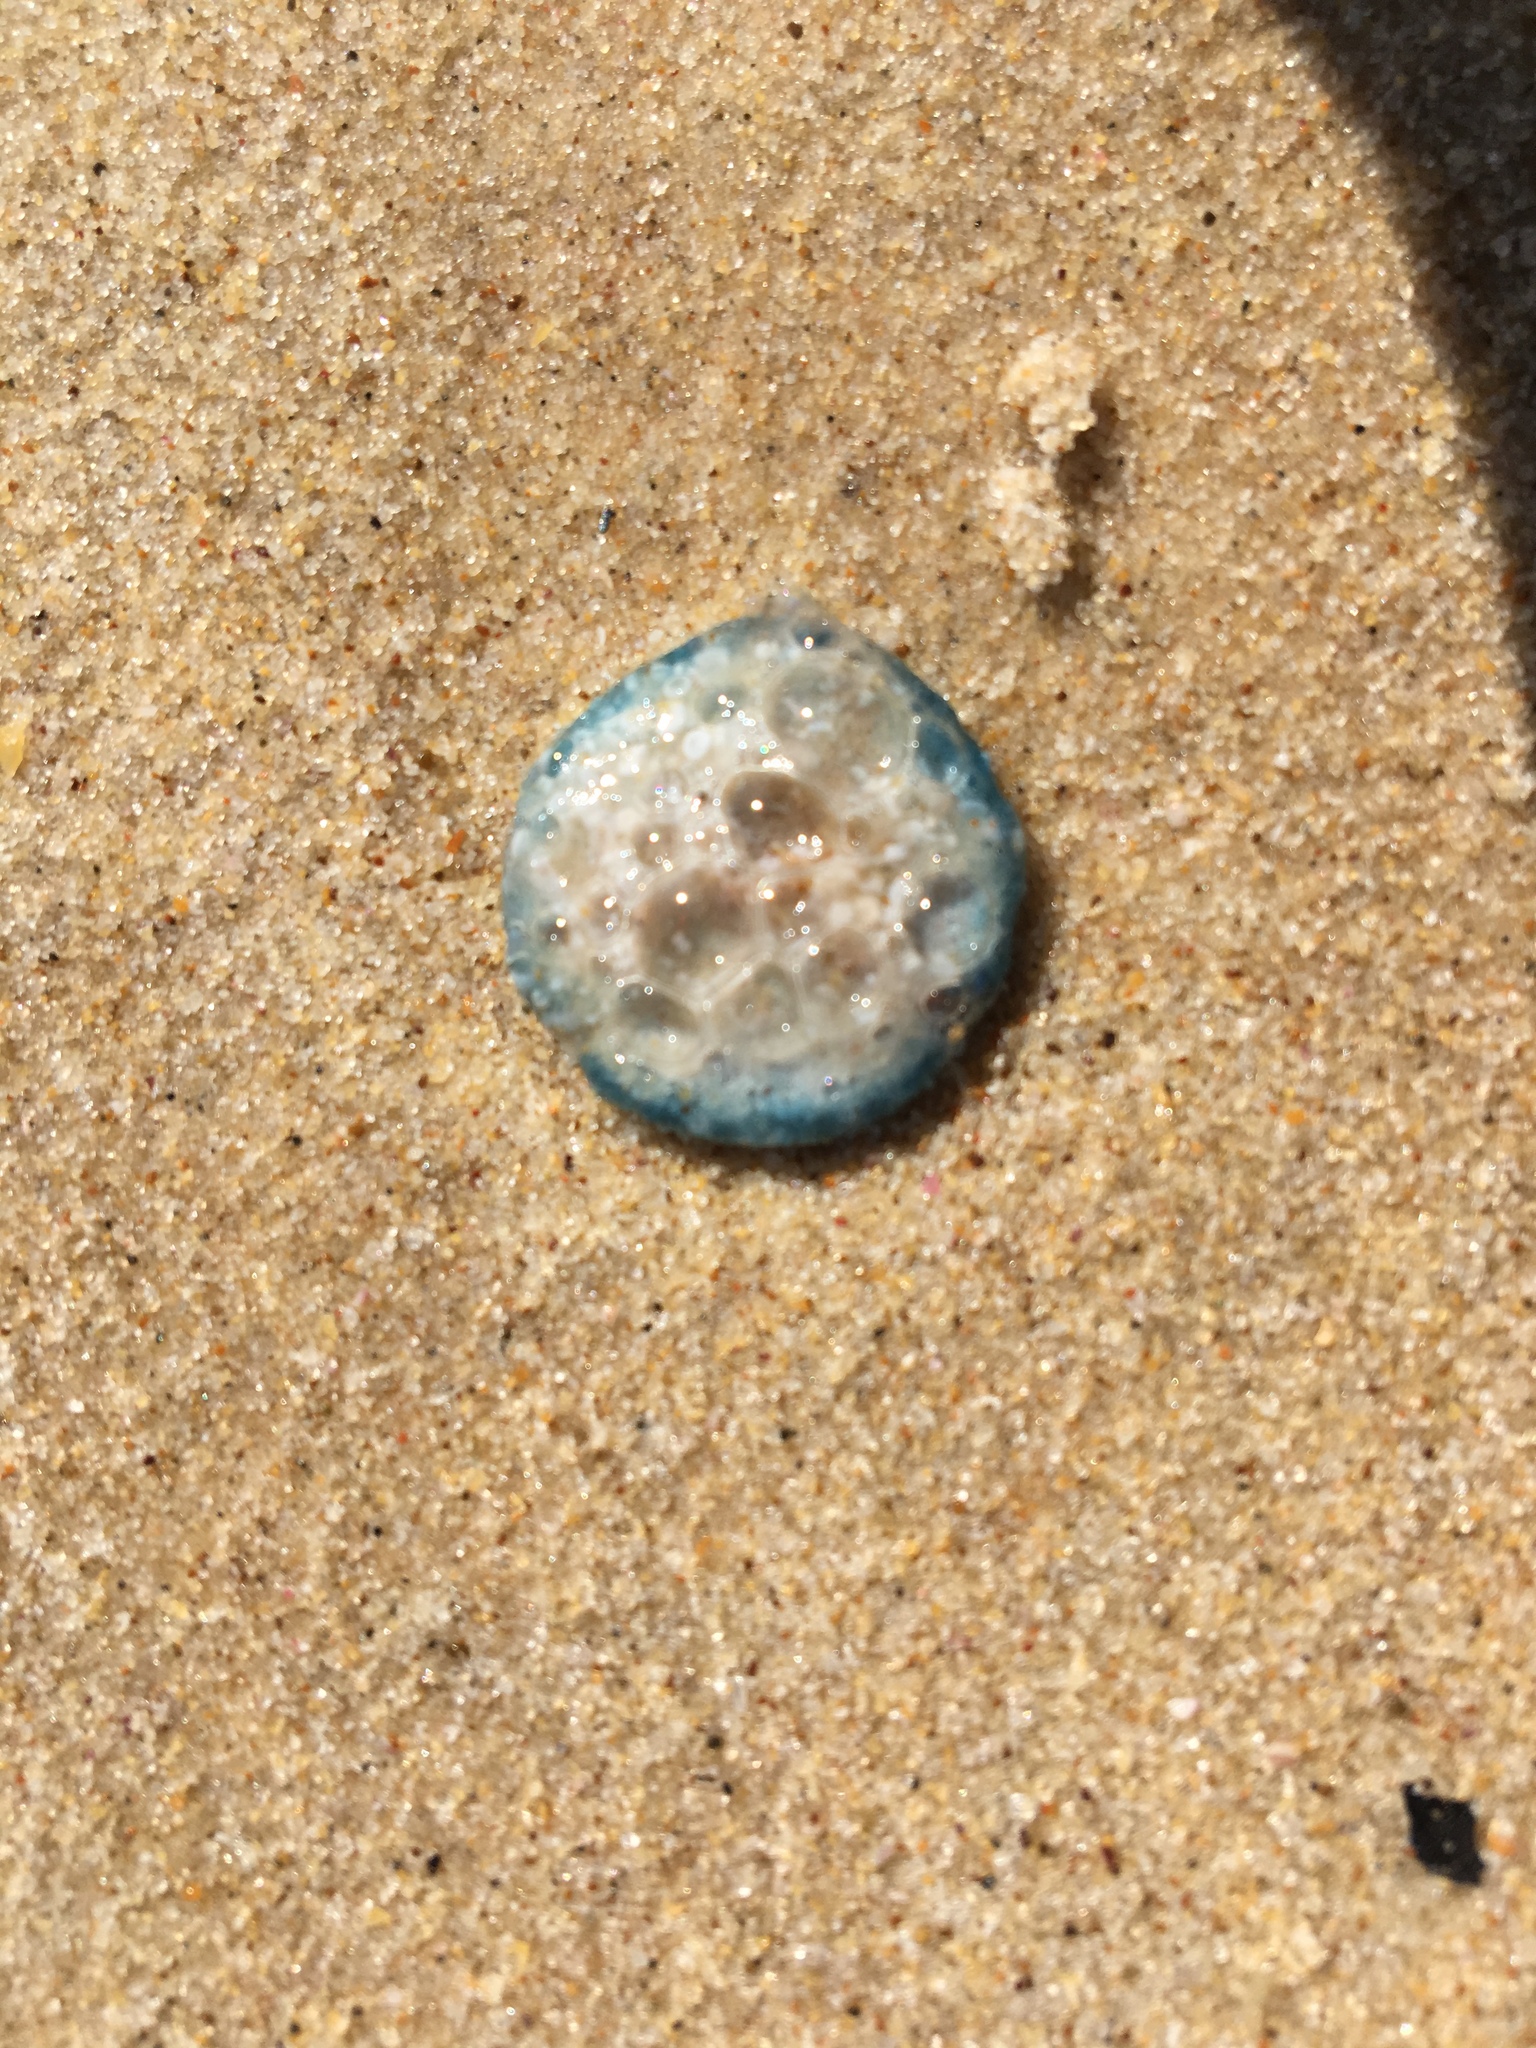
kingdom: Animalia
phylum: Cnidaria
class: Hydrozoa
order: Anthoathecata
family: Porpitidae
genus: Porpita
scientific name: Porpita porpita
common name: Blue button
